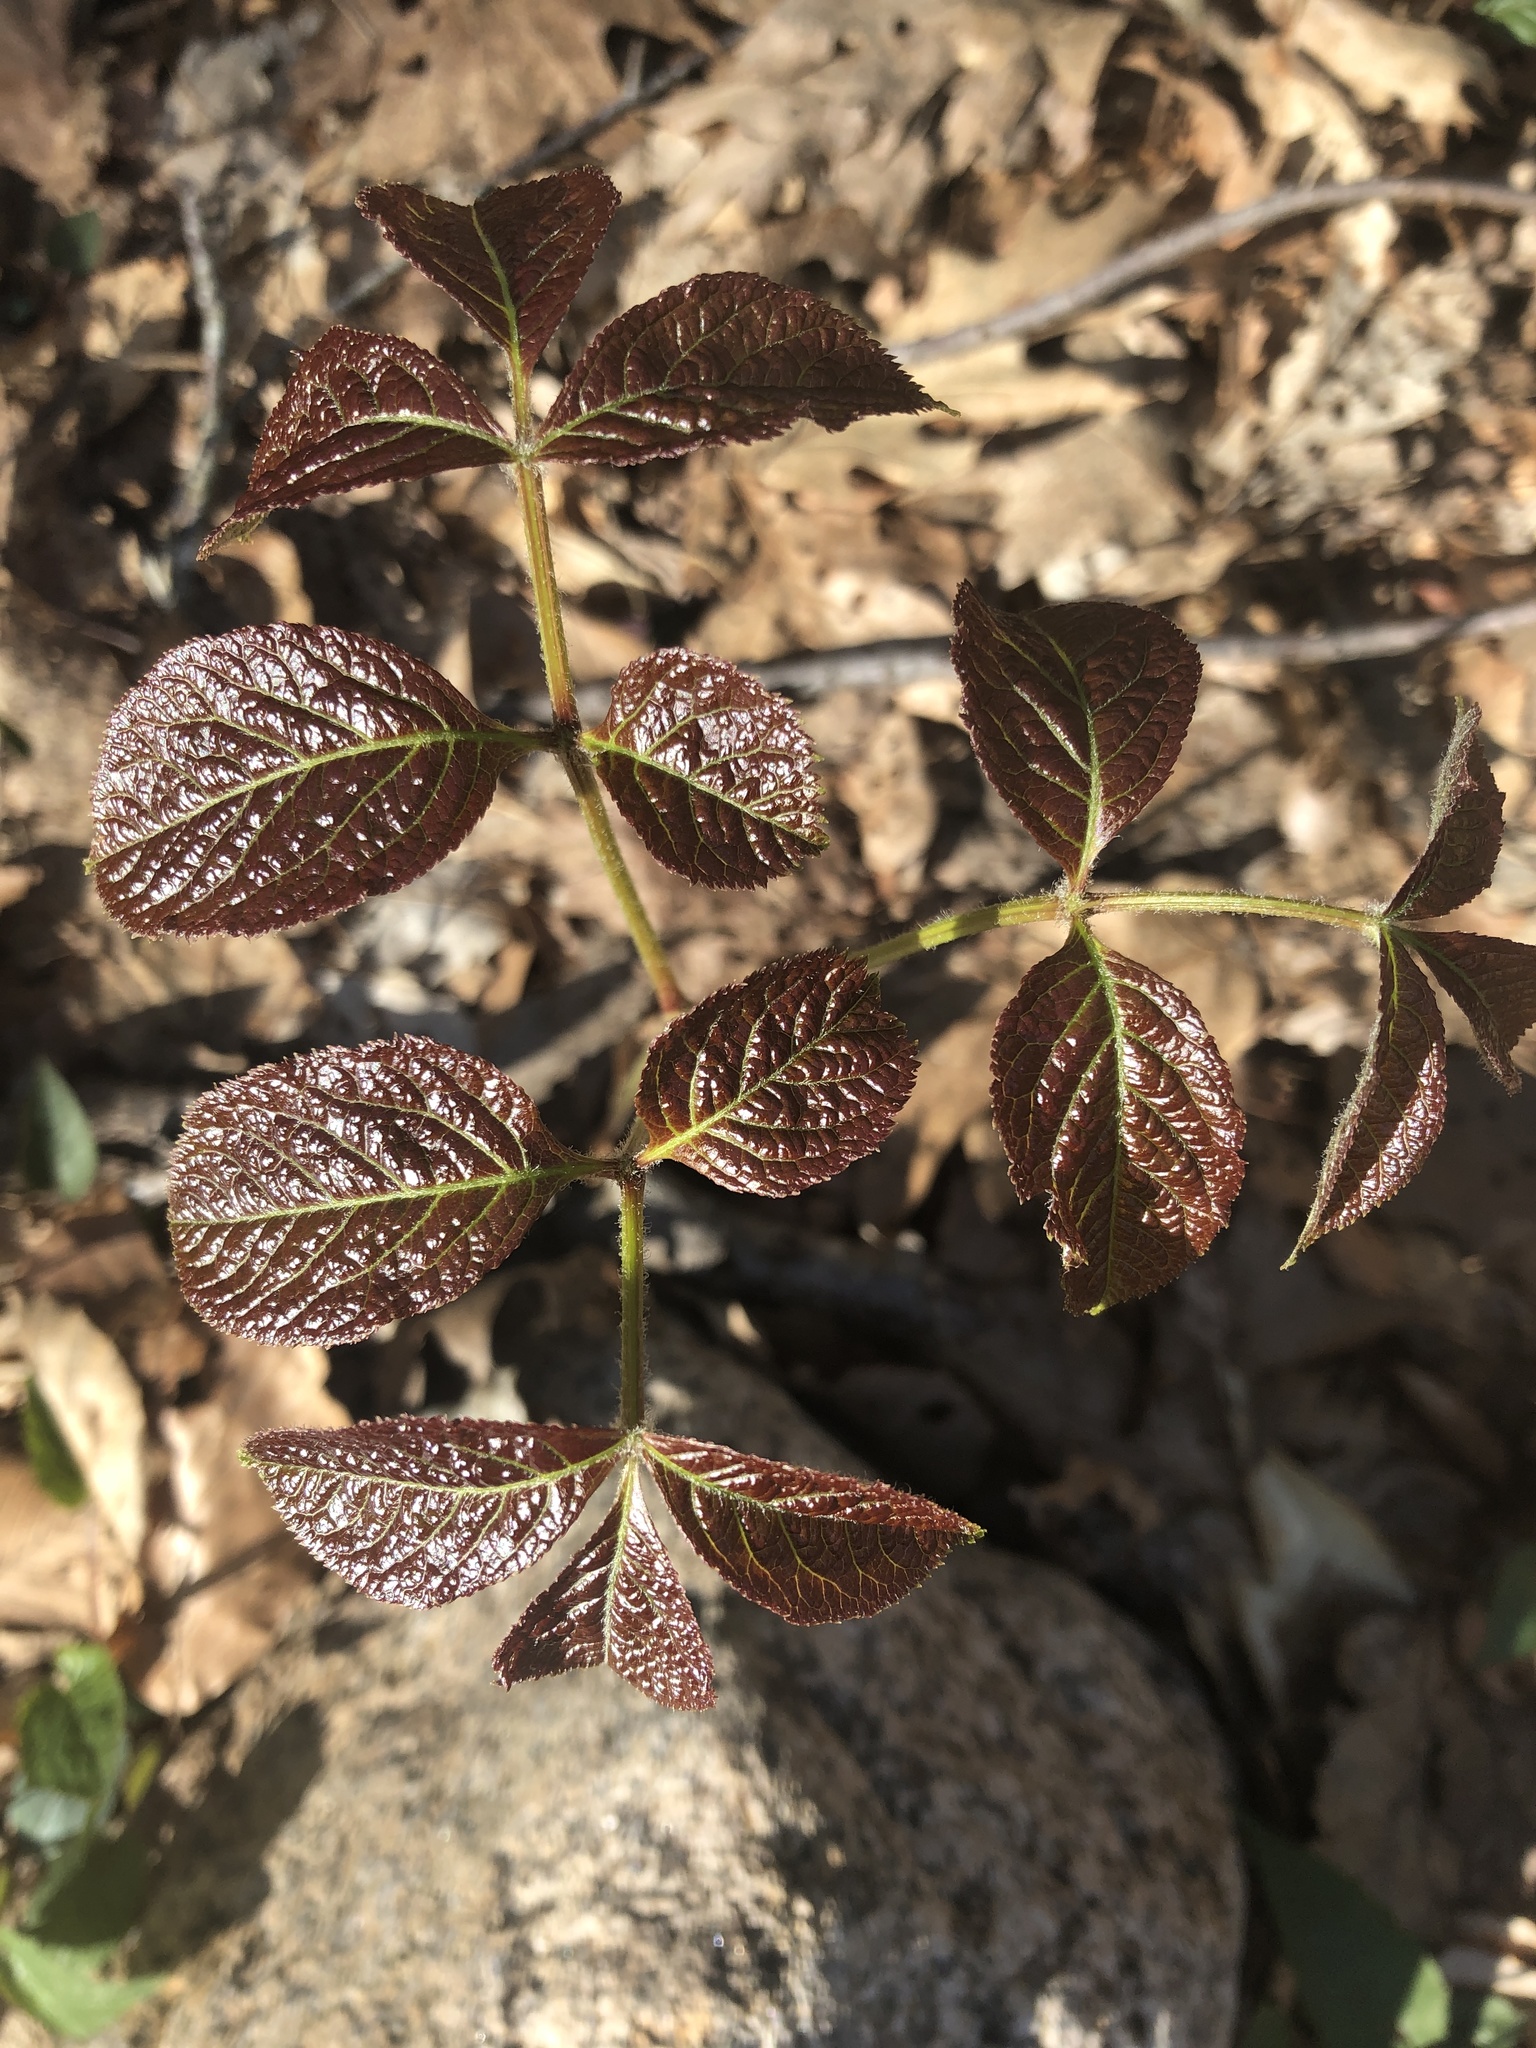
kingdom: Plantae
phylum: Tracheophyta
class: Magnoliopsida
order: Apiales
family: Araliaceae
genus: Aralia
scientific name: Aralia nudicaulis
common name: Wild sarsaparilla
